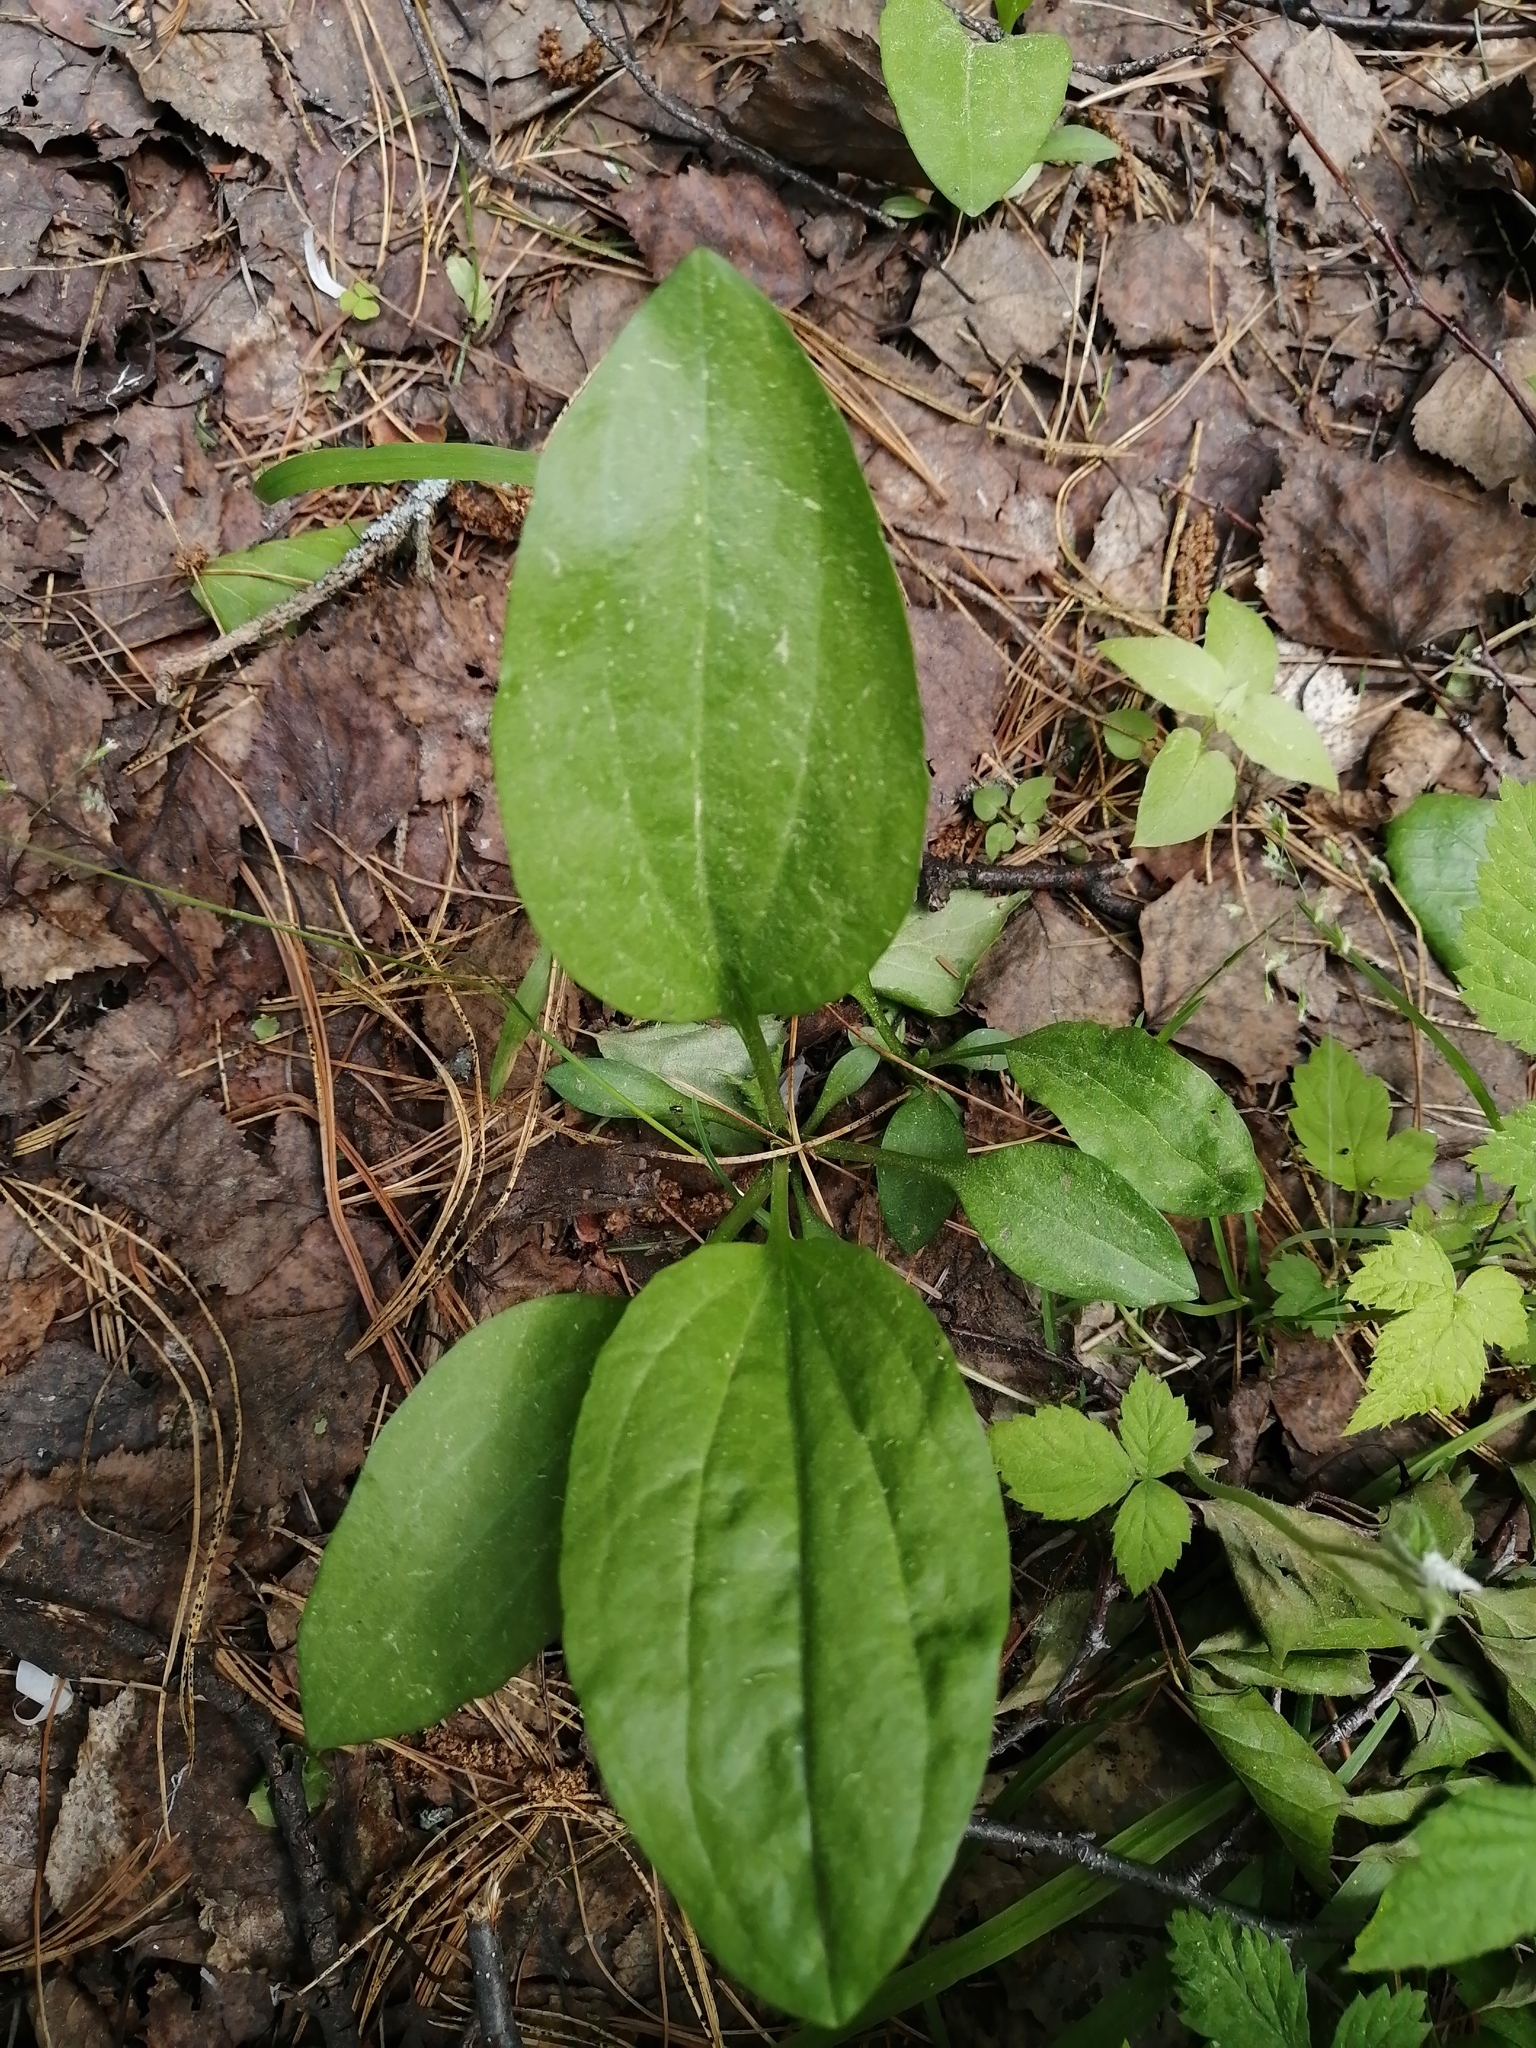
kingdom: Plantae
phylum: Tracheophyta
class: Magnoliopsida
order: Lamiales
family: Plantaginaceae
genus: Plantago
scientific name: Plantago major
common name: Common plantain
